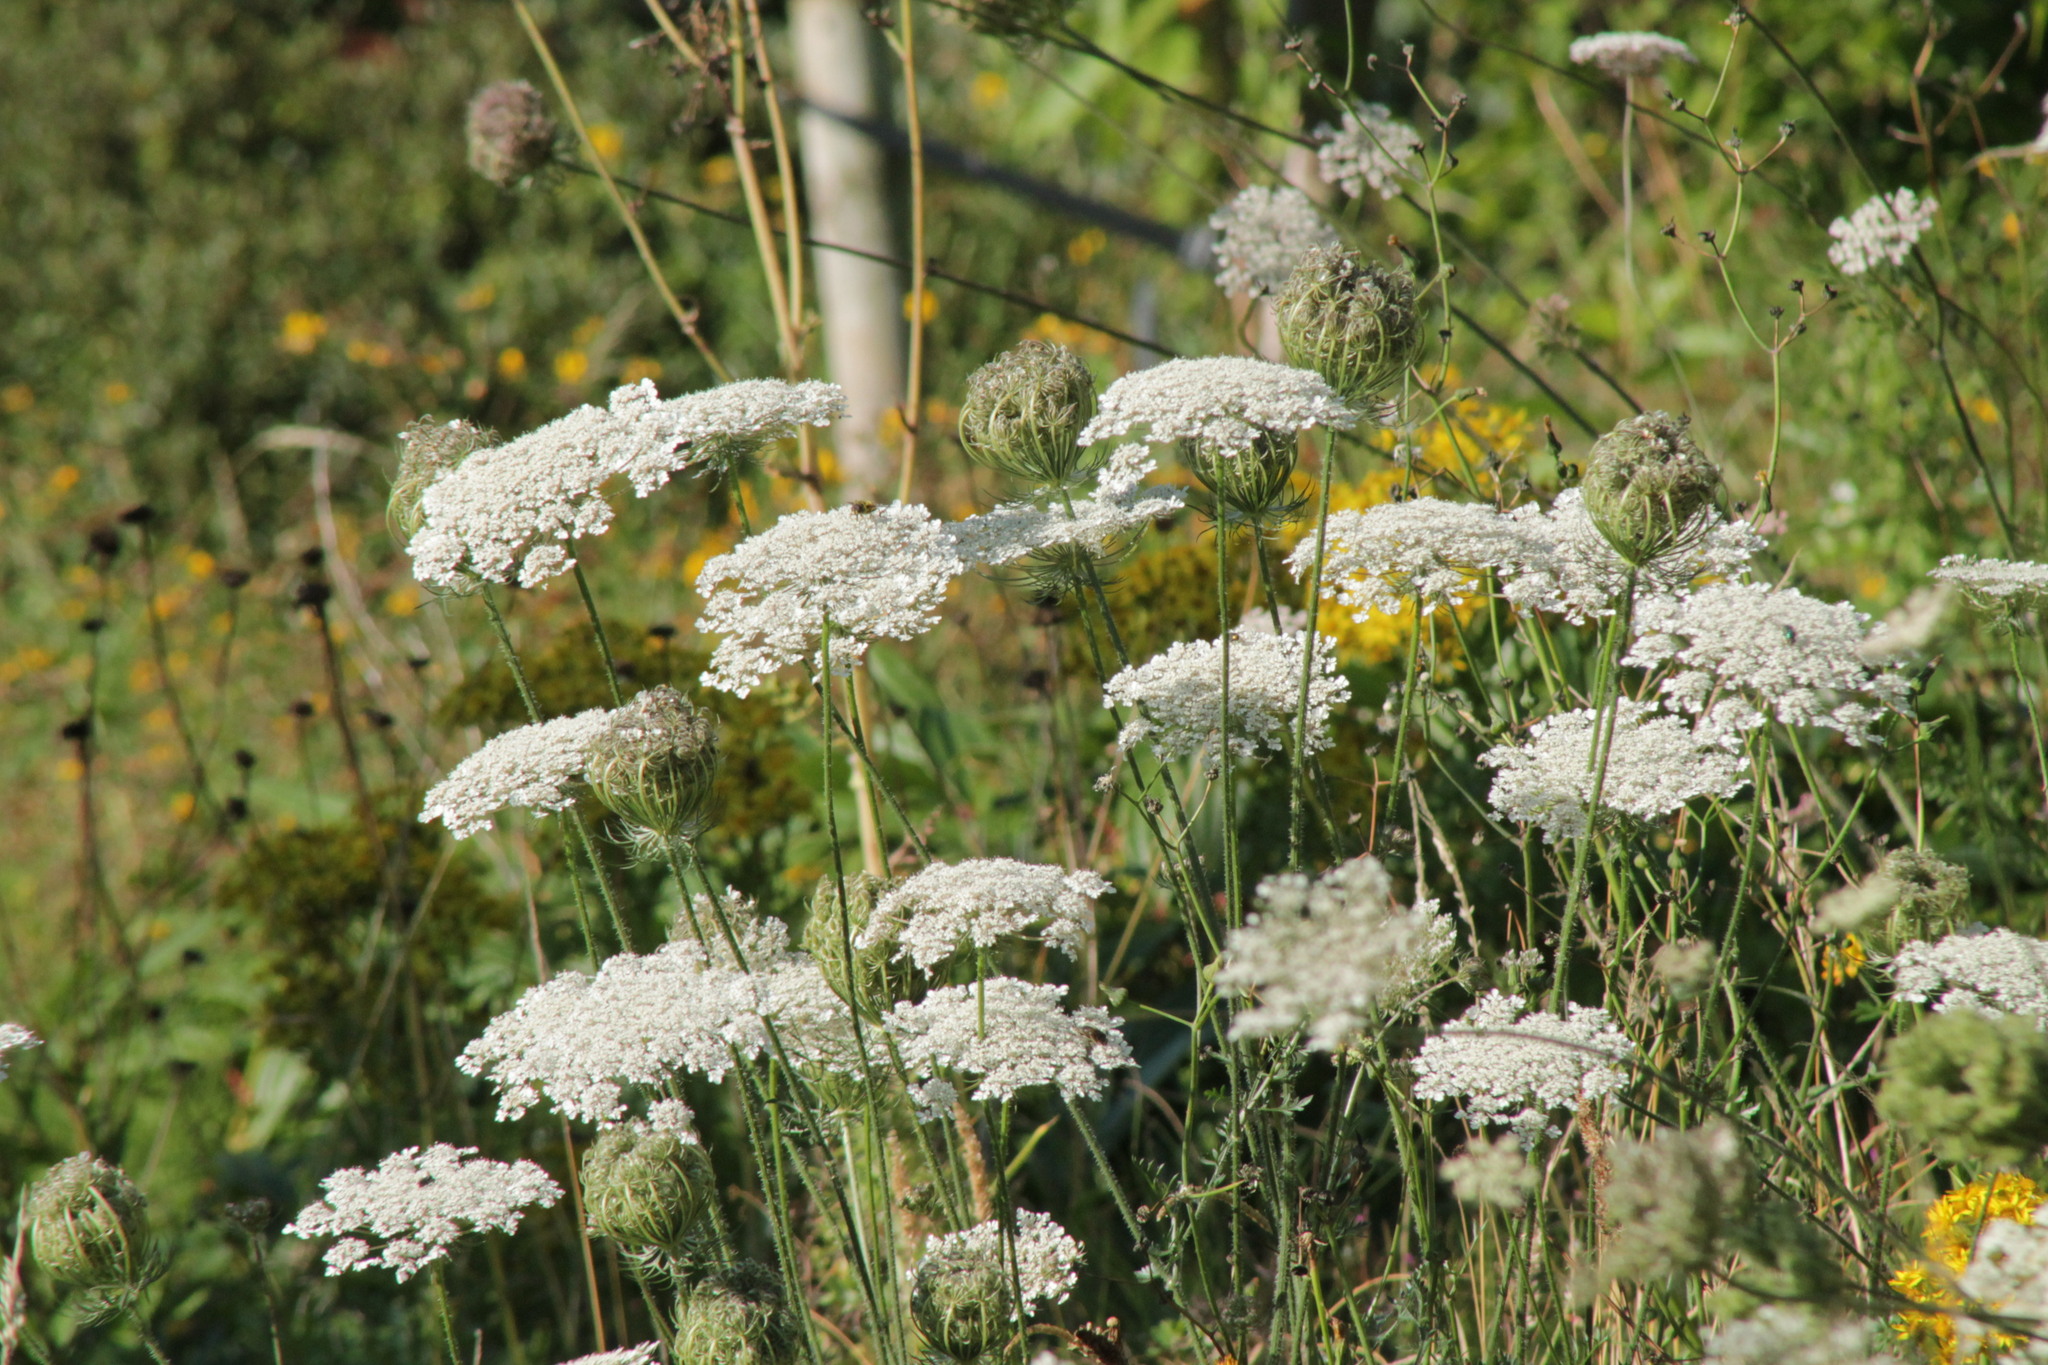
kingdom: Plantae
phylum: Tracheophyta
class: Magnoliopsida
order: Apiales
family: Apiaceae
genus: Daucus
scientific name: Daucus carota
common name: Wild carrot
